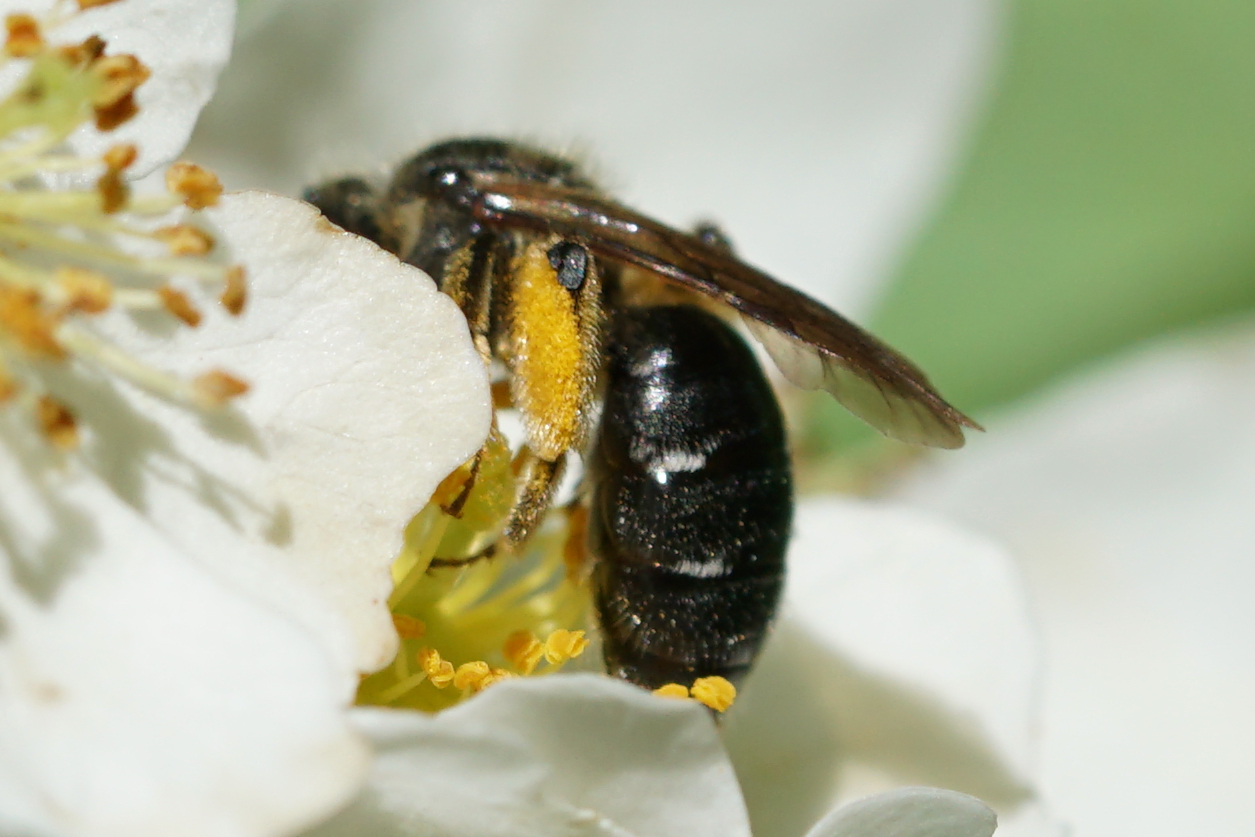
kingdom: Animalia
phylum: Arthropoda
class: Insecta
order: Hymenoptera
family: Andrenidae
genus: Andrena
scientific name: Andrena
